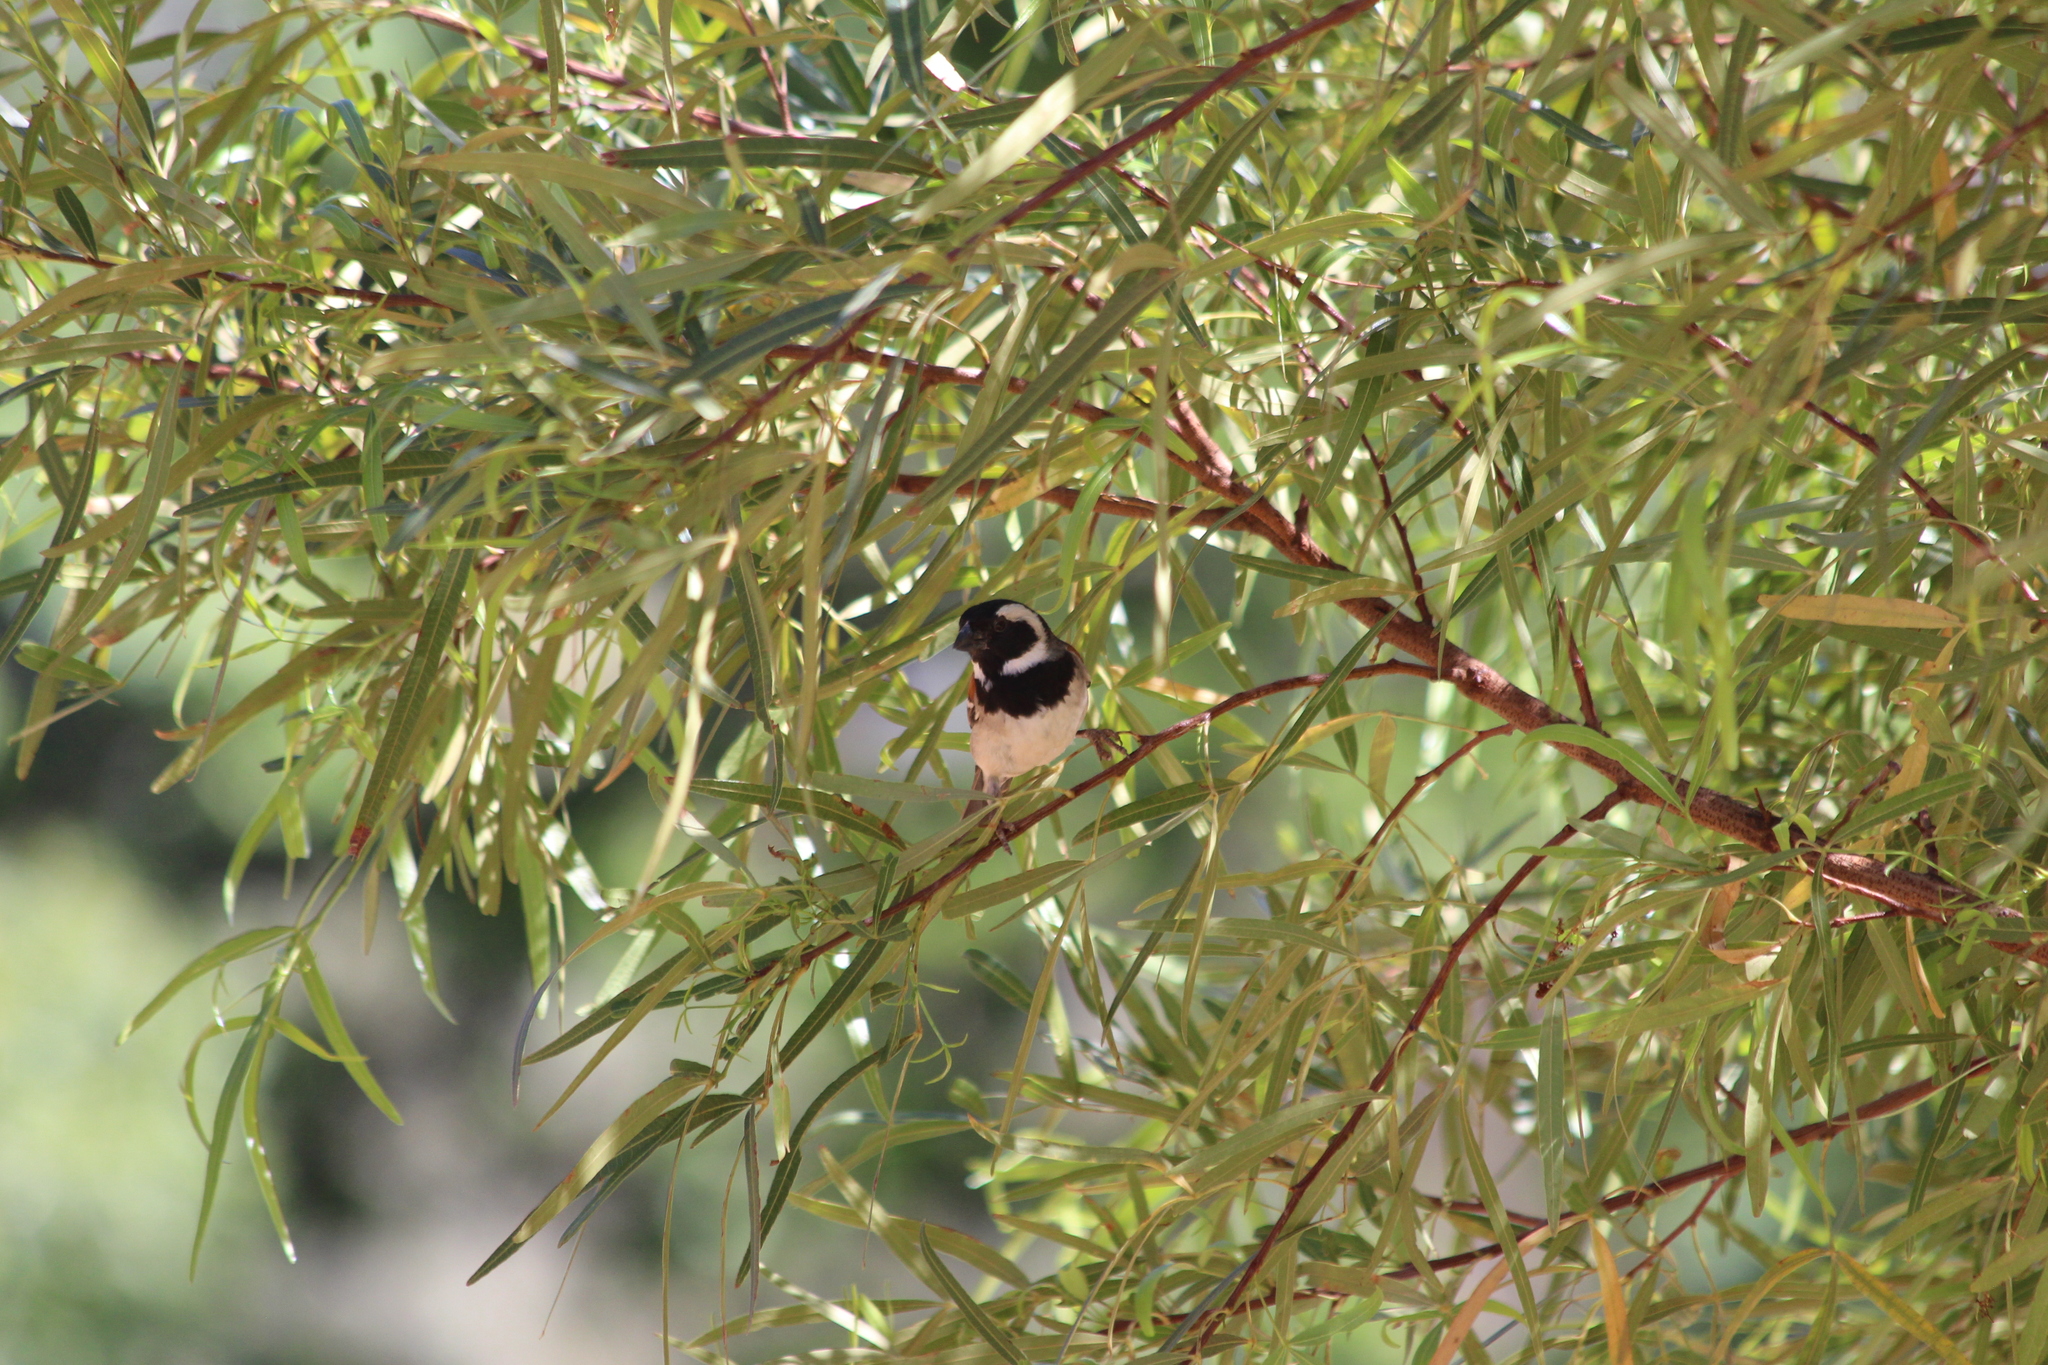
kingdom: Animalia
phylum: Chordata
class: Aves
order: Passeriformes
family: Passeridae
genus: Passer
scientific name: Passer melanurus
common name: Cape sparrow
